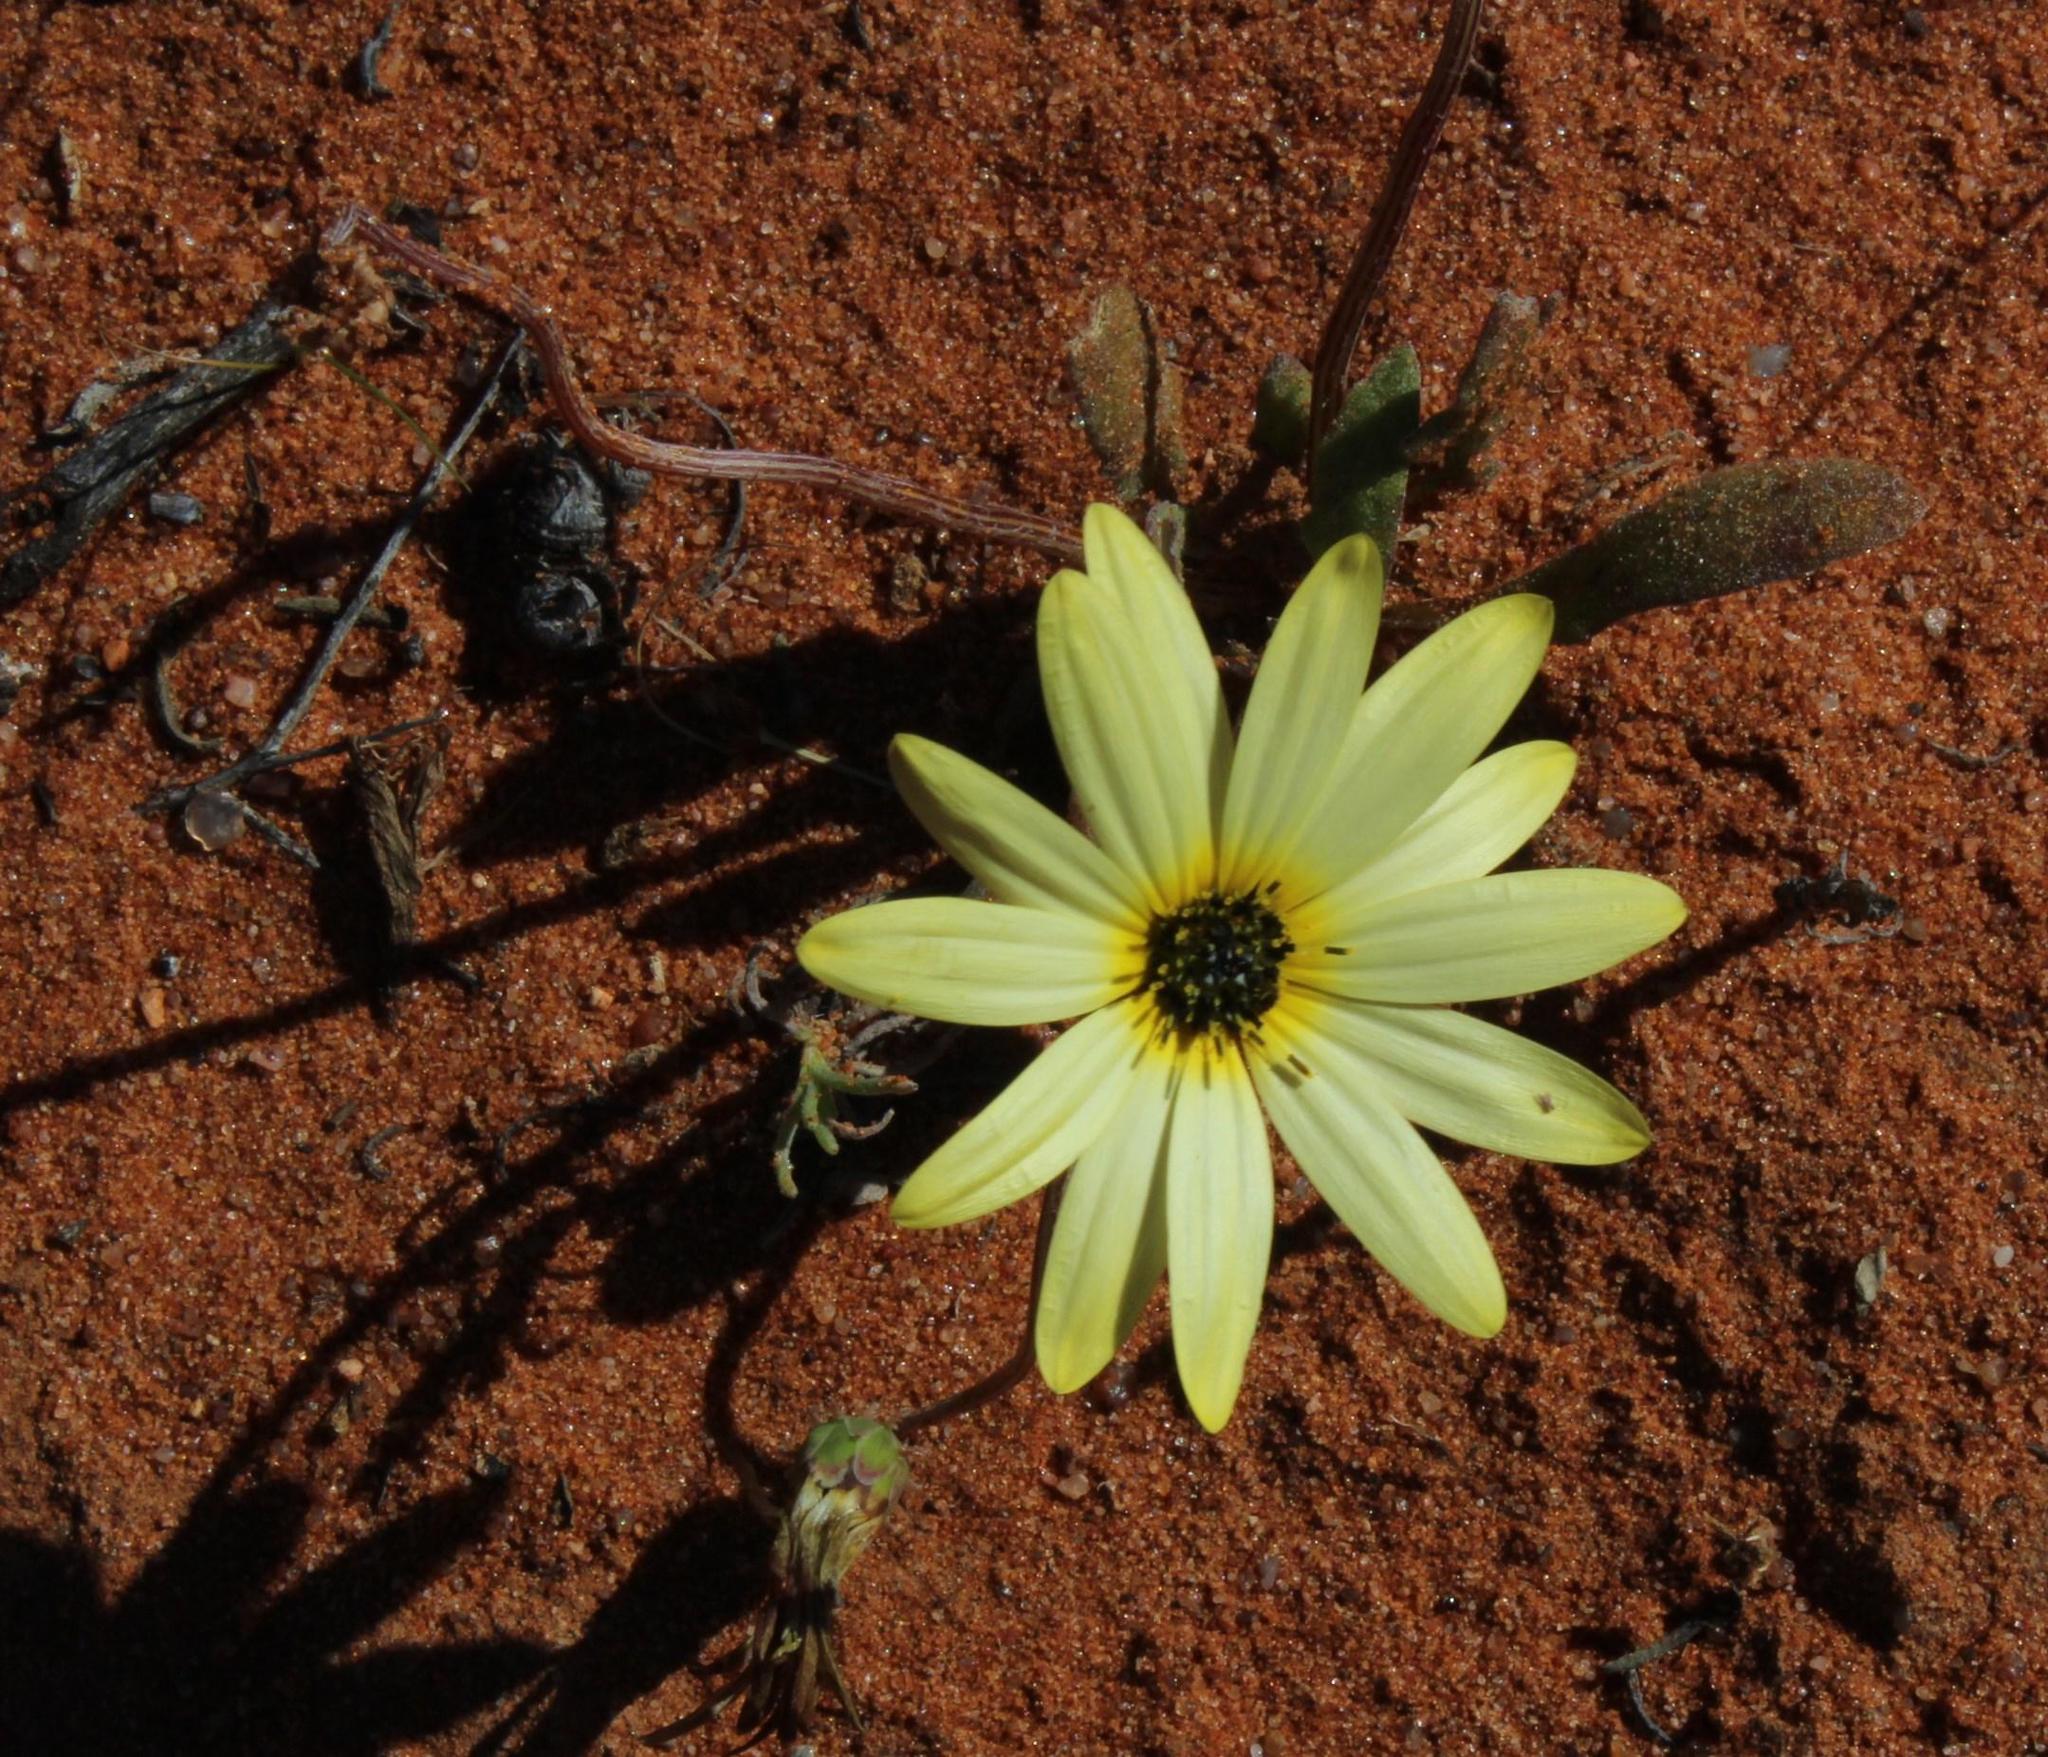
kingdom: Plantae
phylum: Tracheophyta
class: Magnoliopsida
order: Asterales
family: Asteraceae
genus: Arctotheca
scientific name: Arctotheca calendula
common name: Capeweed
